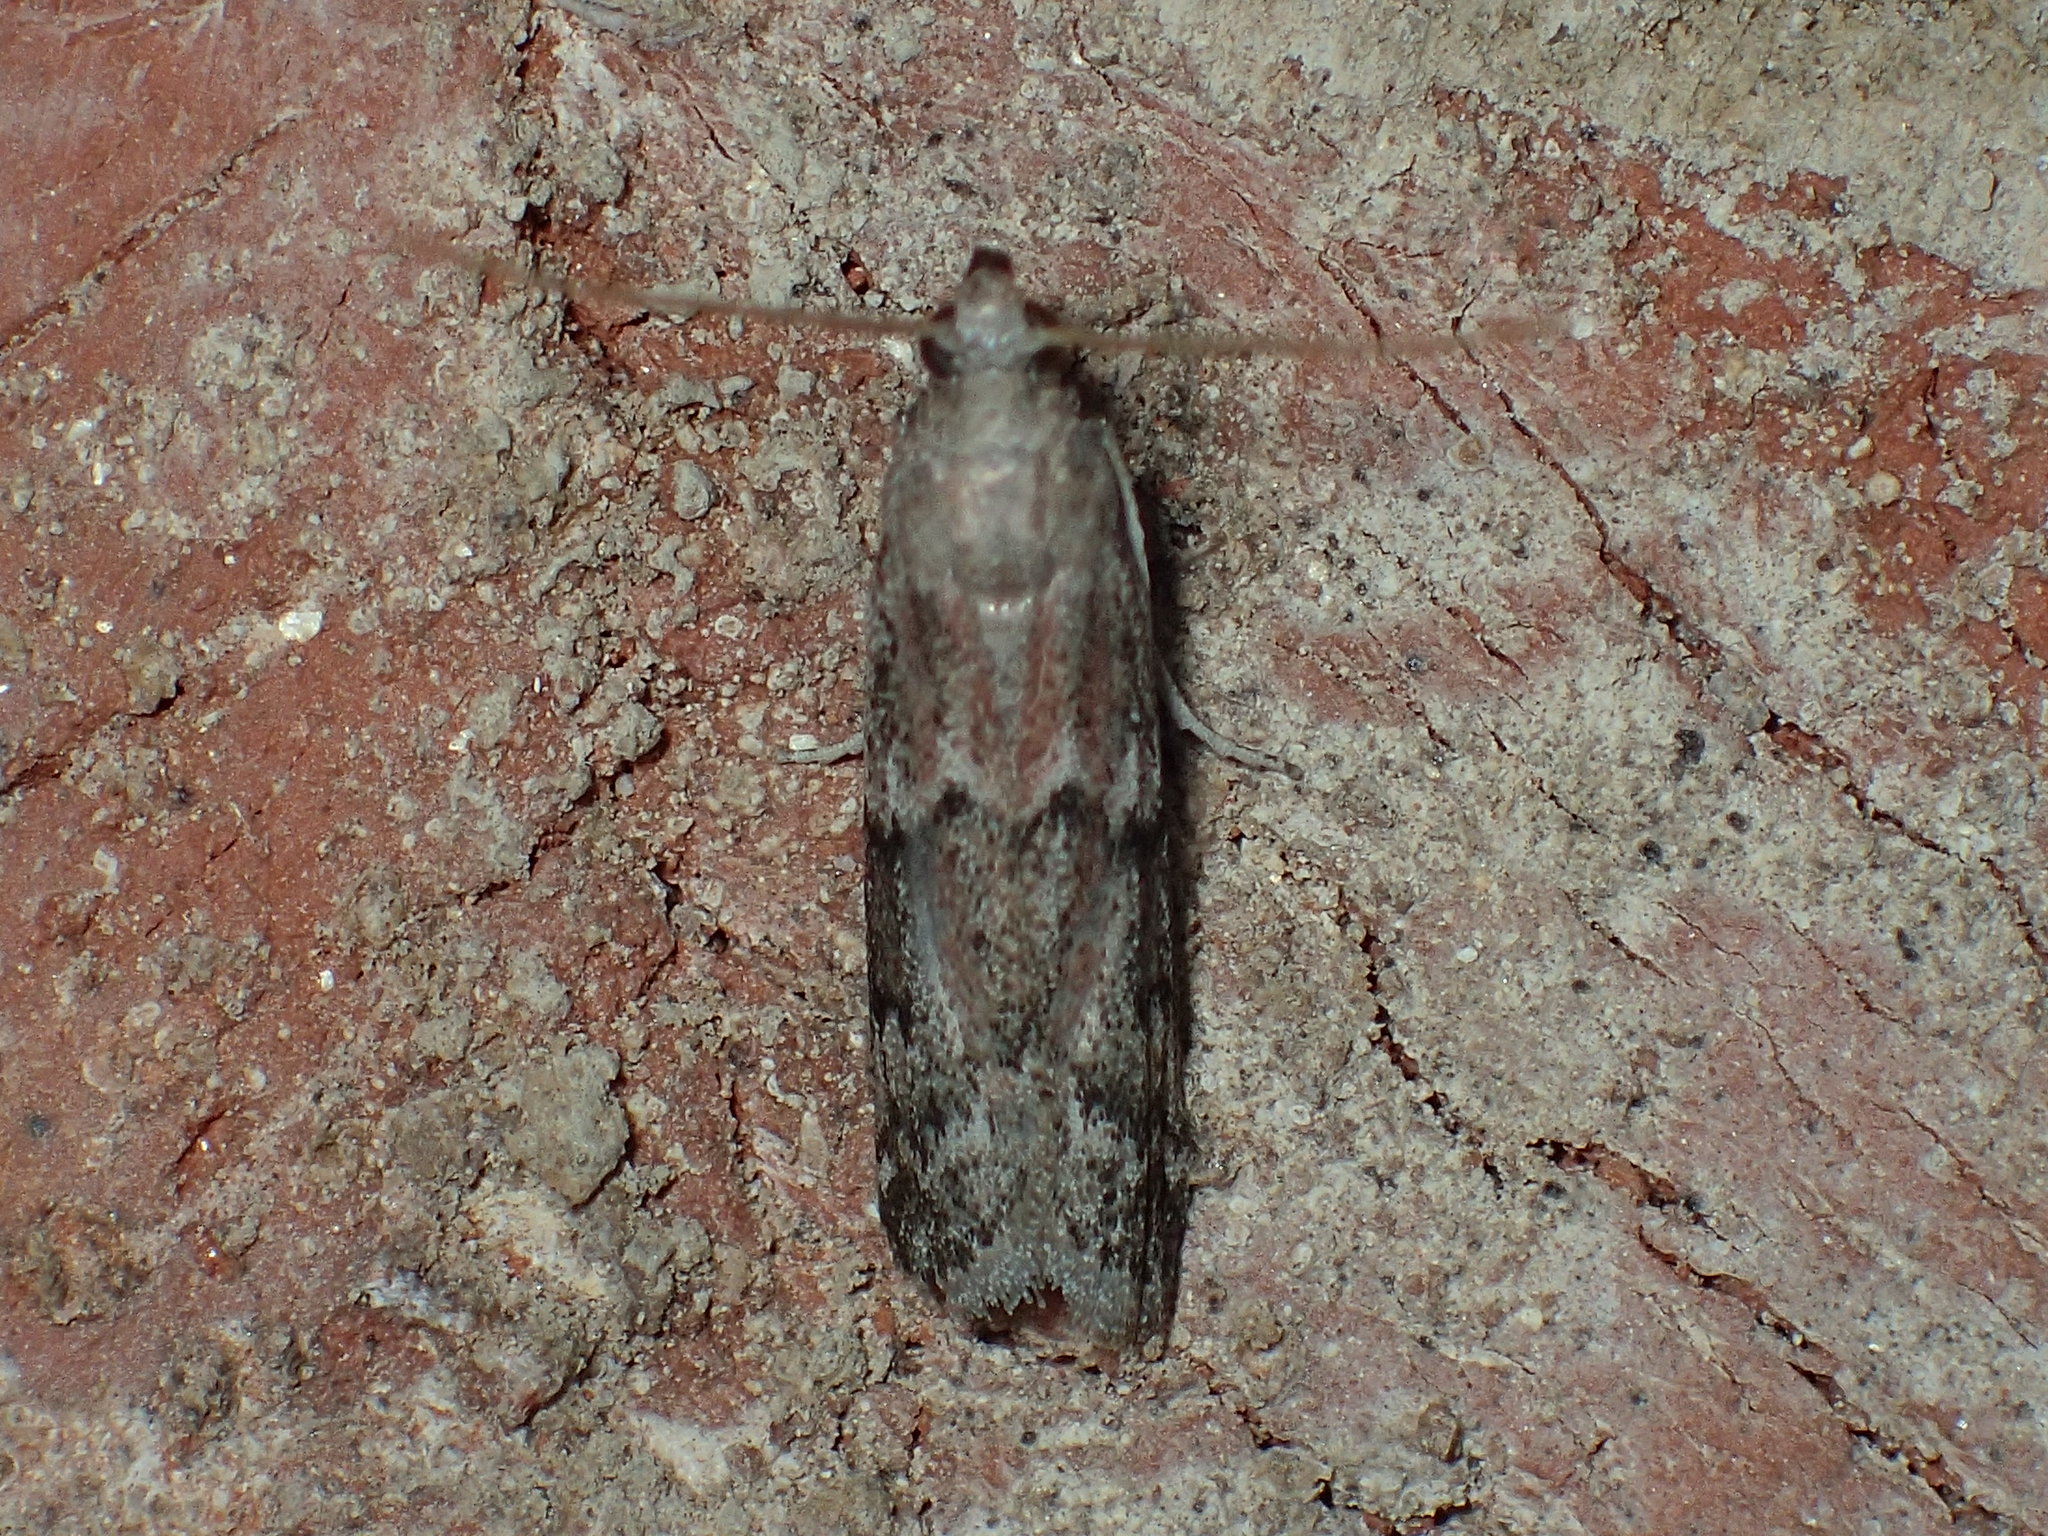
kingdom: Animalia
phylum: Arthropoda
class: Insecta
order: Lepidoptera
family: Pyralidae
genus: Vitula
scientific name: Vitula edmandsii
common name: Dried fruit moth
